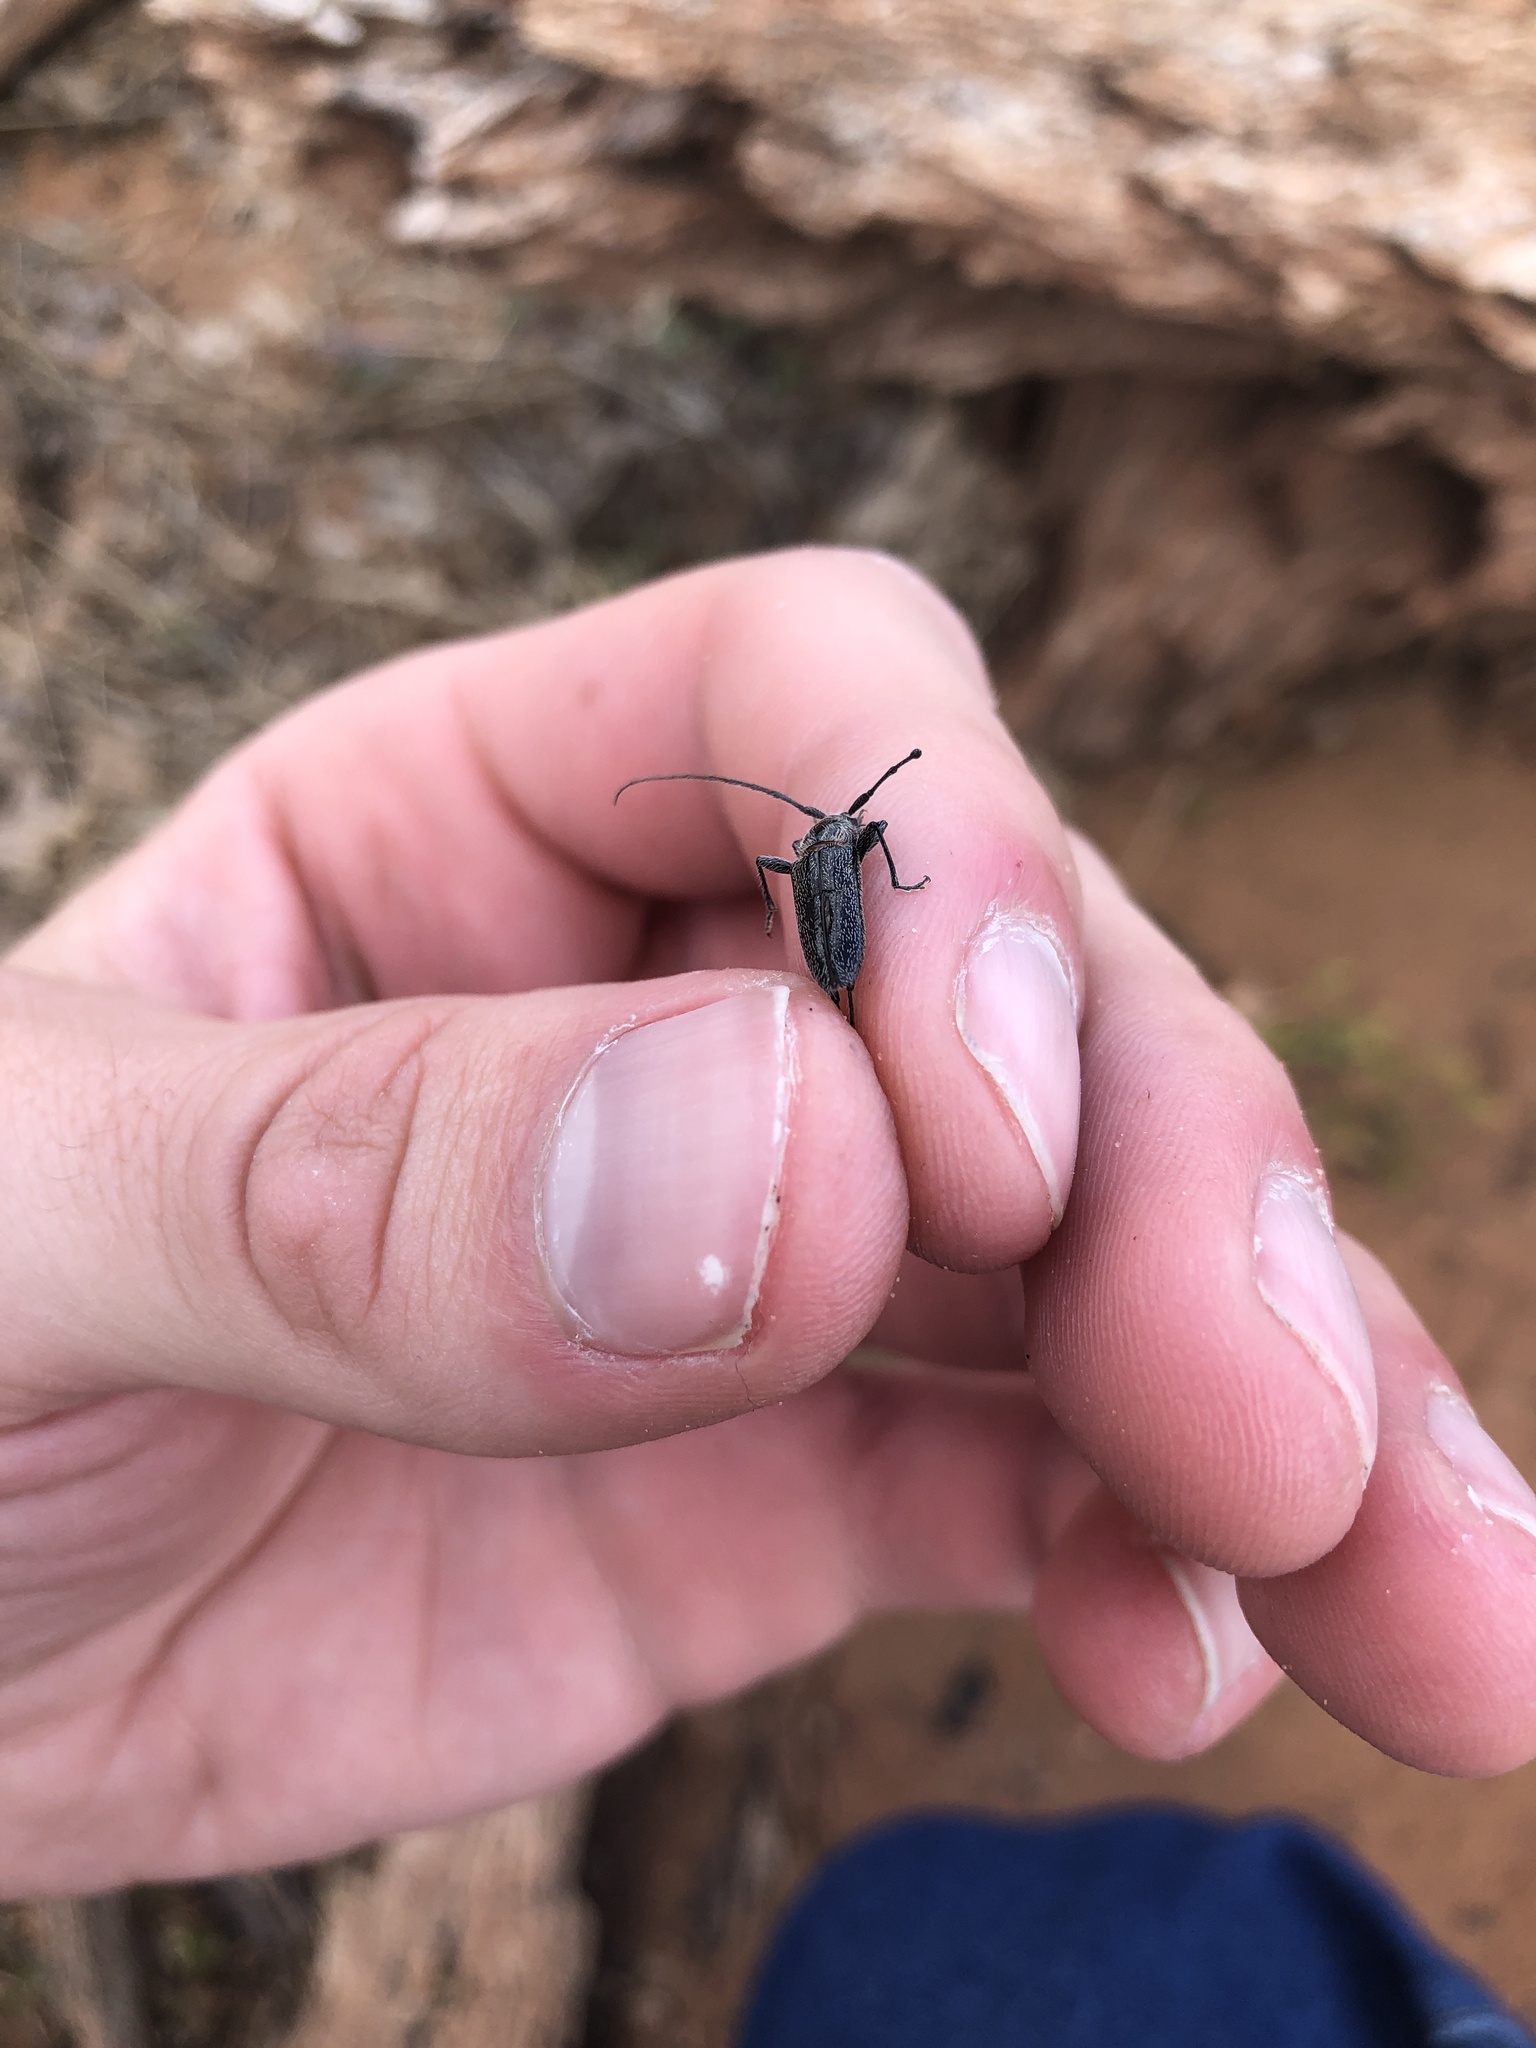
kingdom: Animalia
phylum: Arthropoda
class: Insecta
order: Coleoptera
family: Cerambycidae
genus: Stenosphenus
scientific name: Stenosphenus notatus
